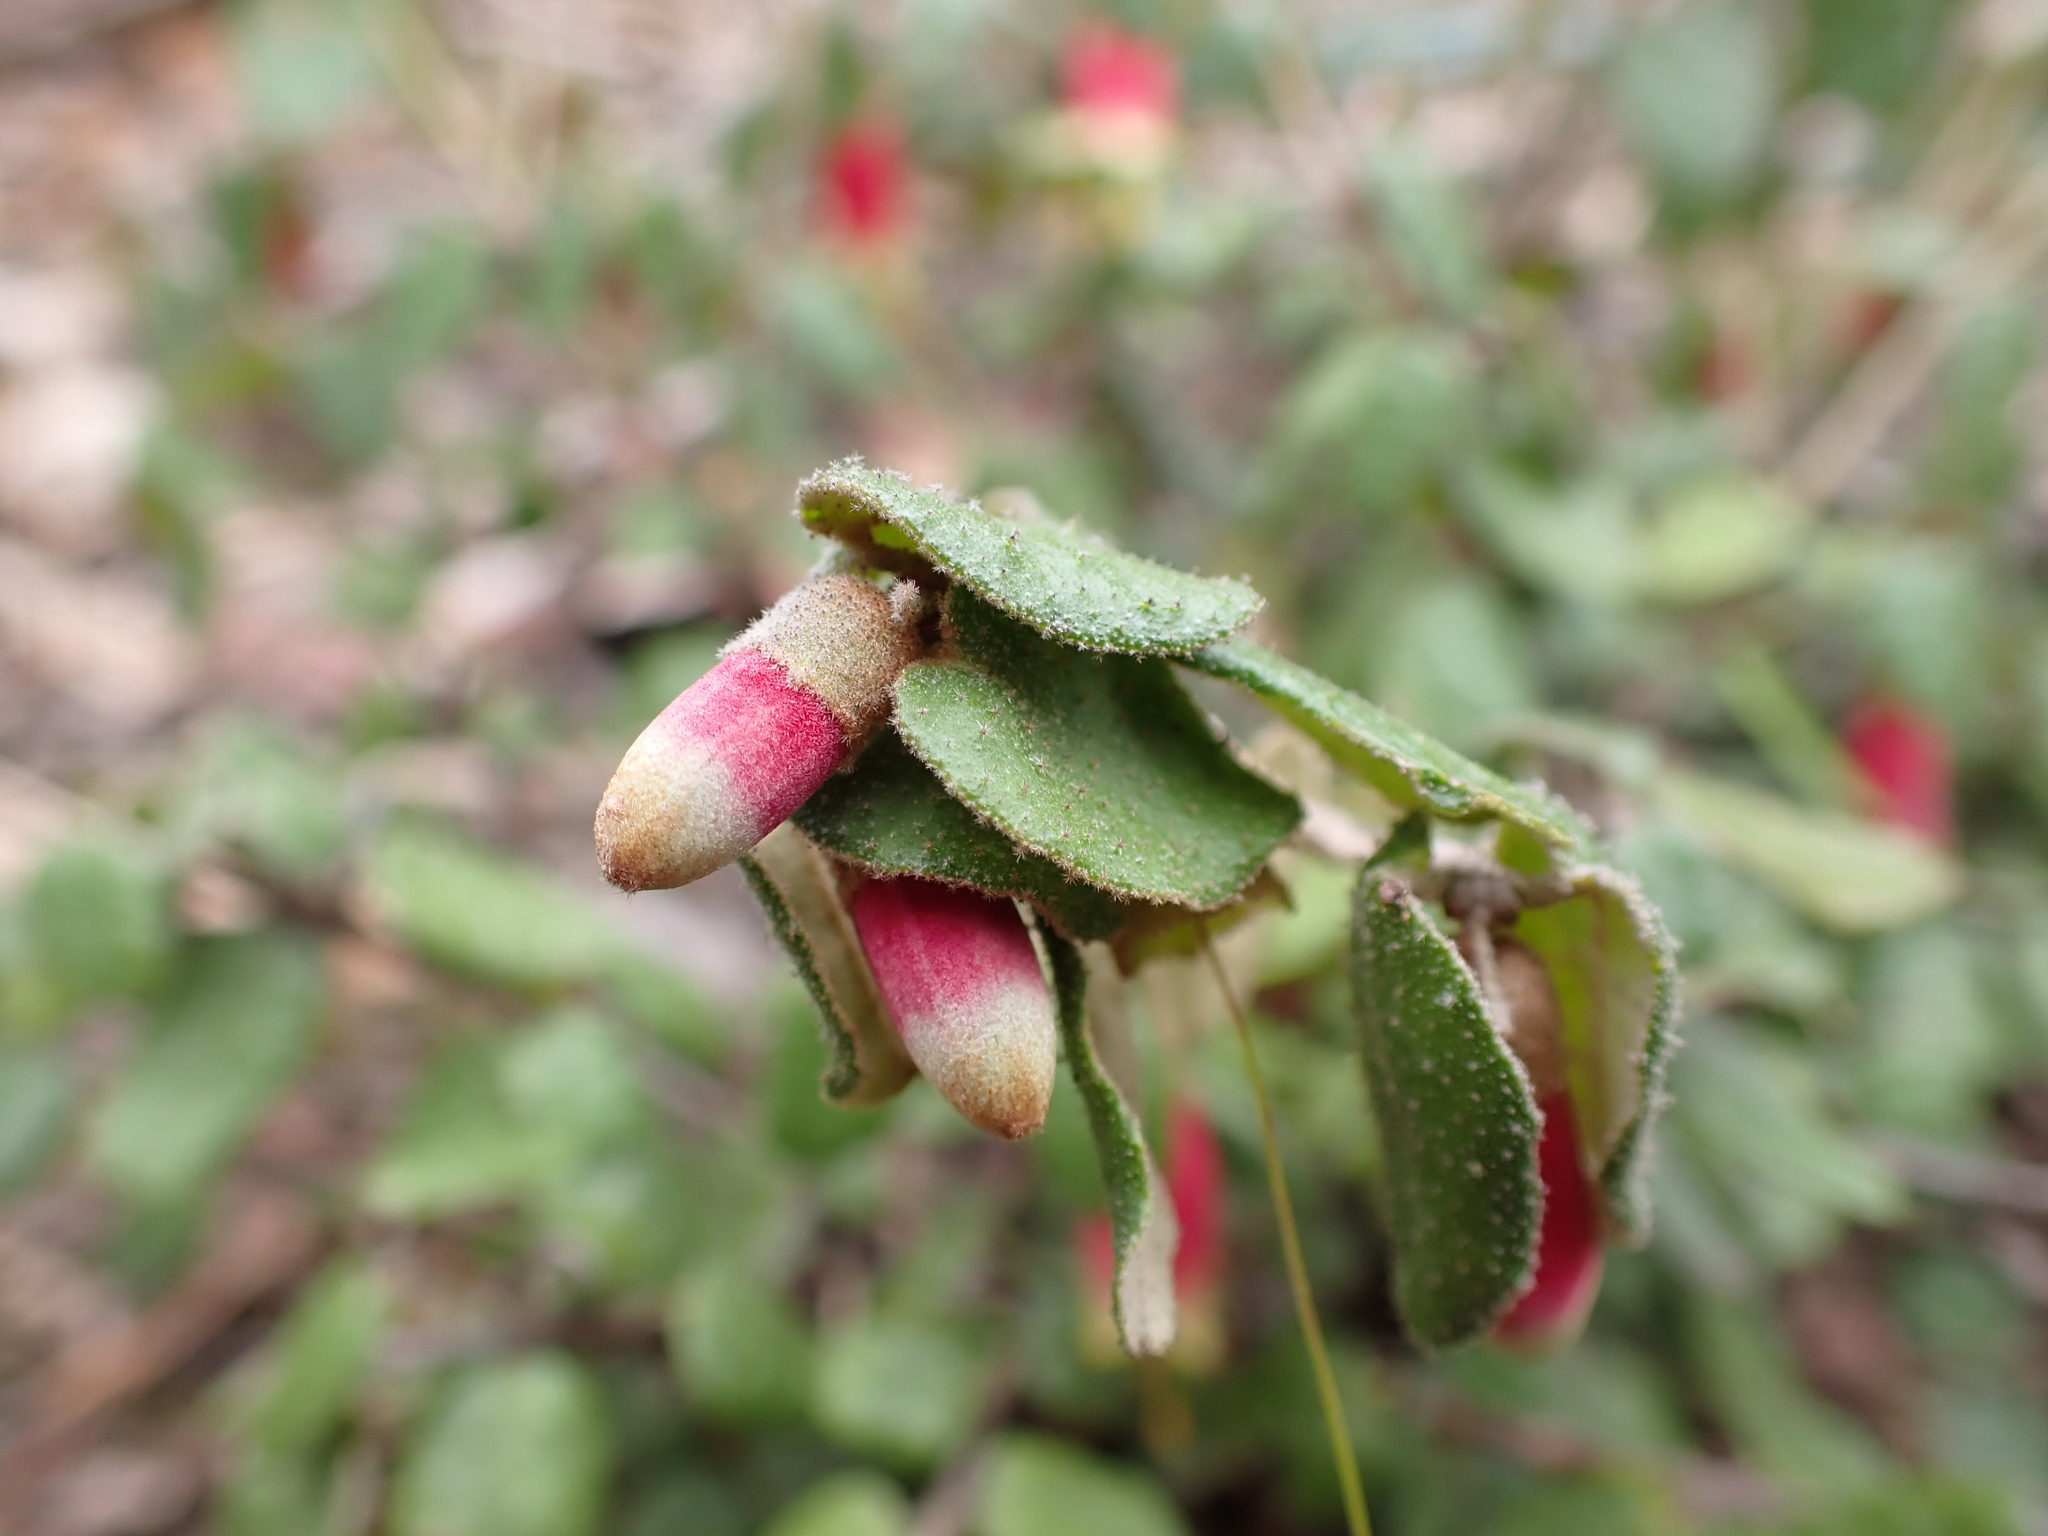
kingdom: Plantae
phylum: Tracheophyta
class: Magnoliopsida
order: Sapindales
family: Rutaceae
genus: Correa
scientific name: Correa reflexa
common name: Common correa
